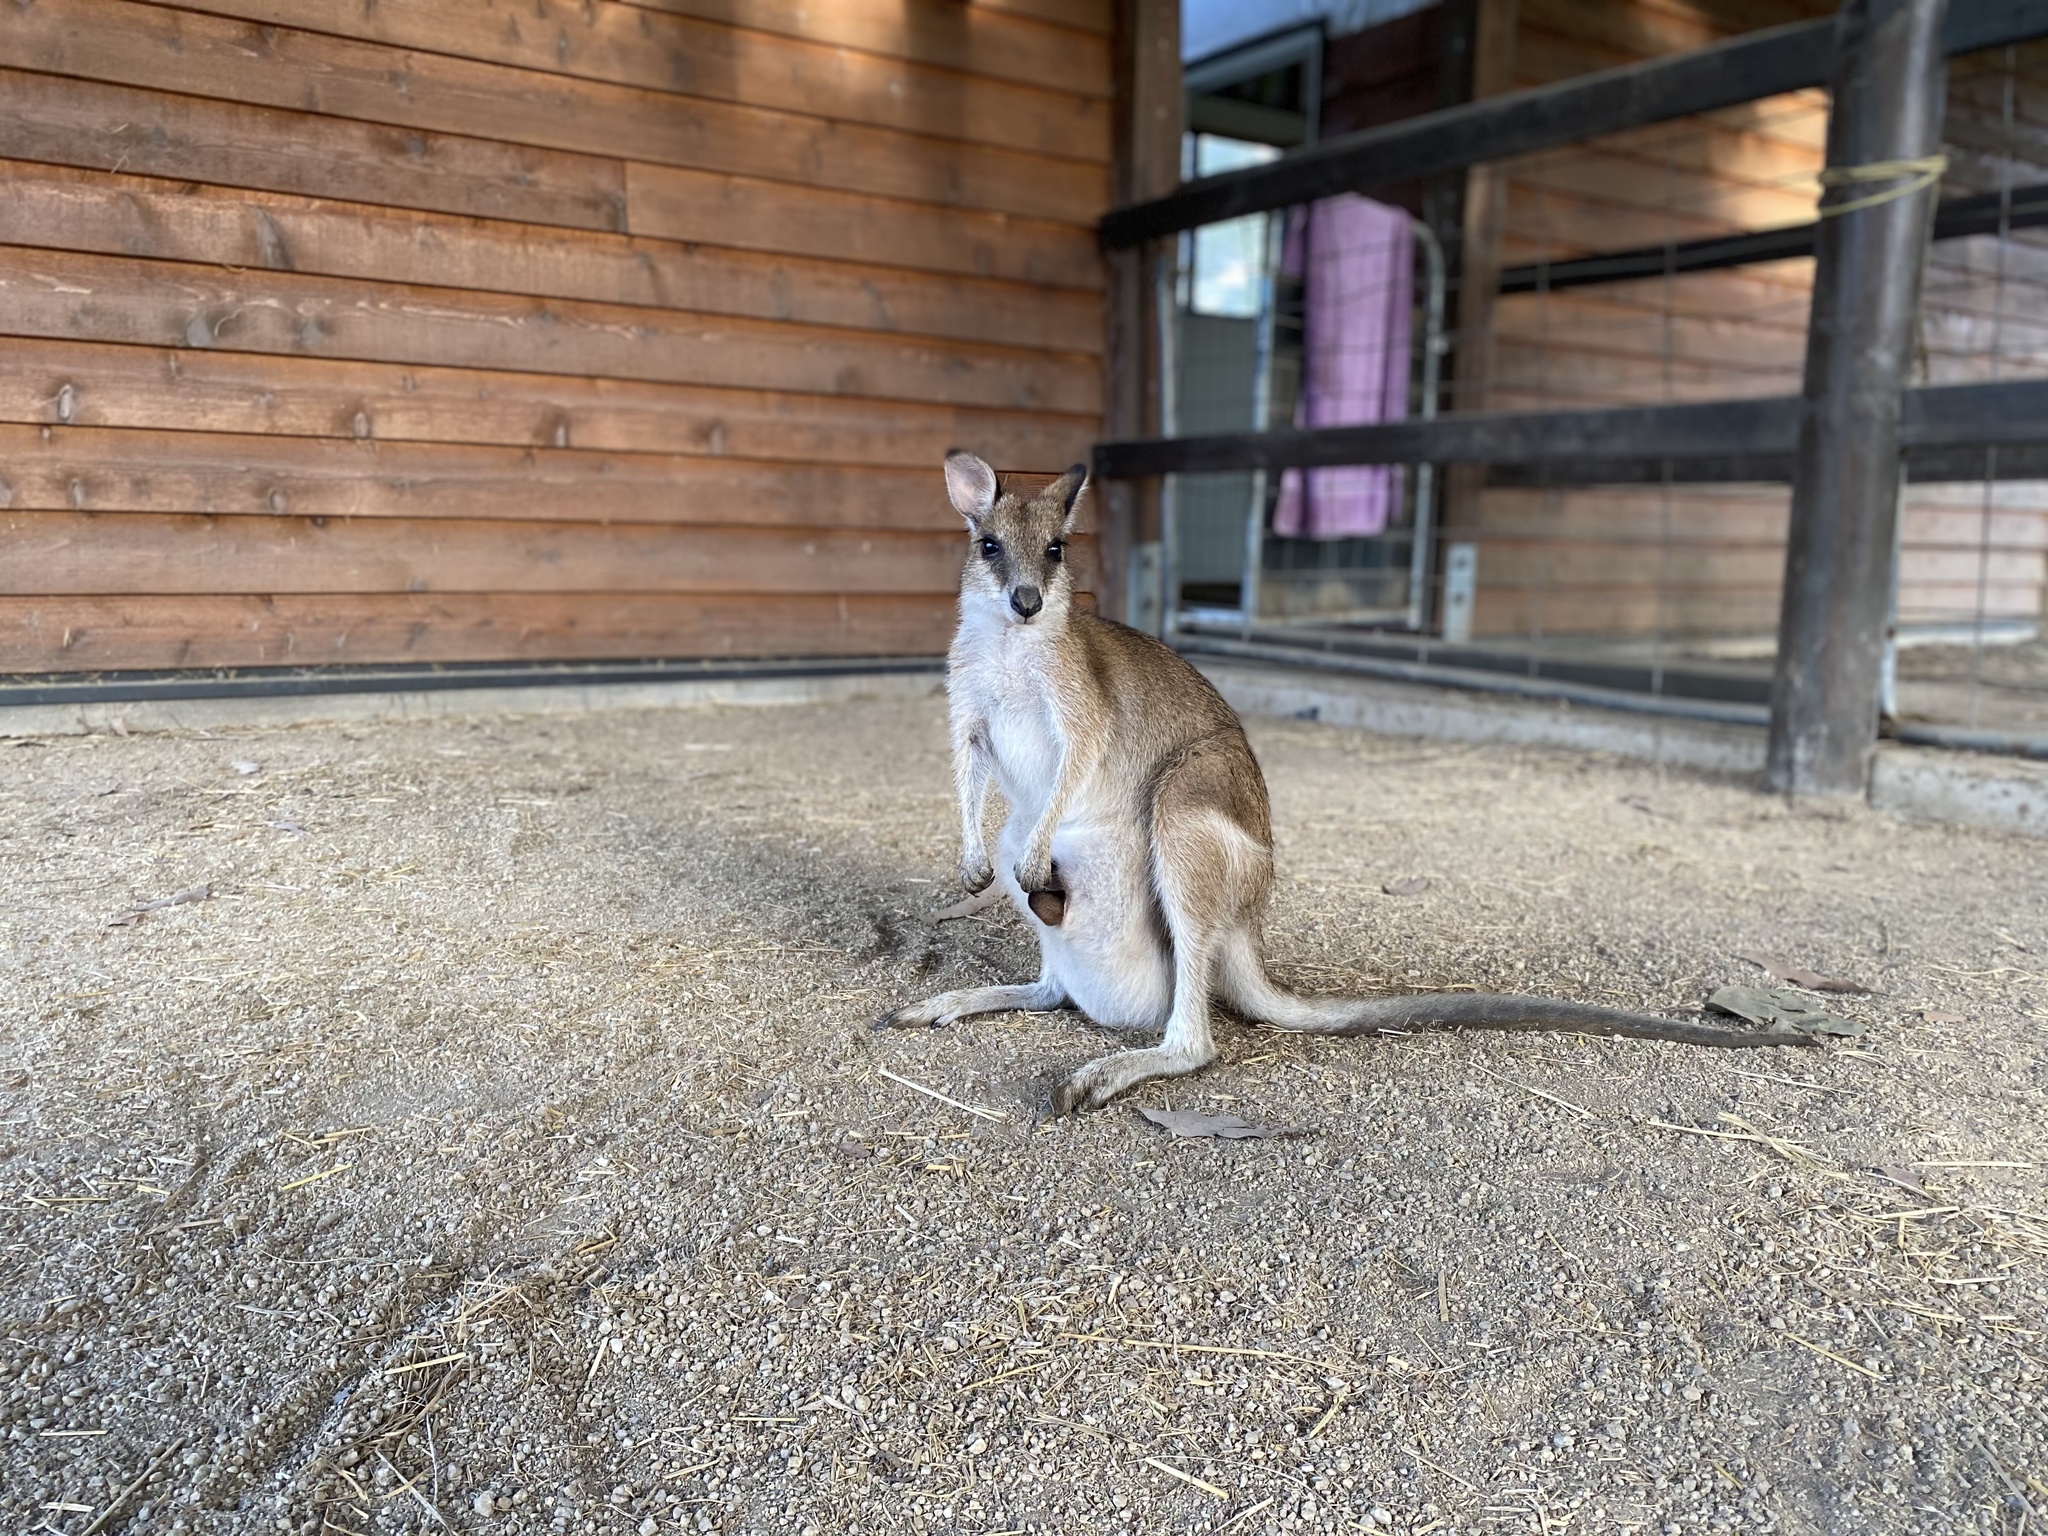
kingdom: Animalia
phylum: Chordata
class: Mammalia
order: Diprotodontia
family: Macropodidae
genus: Macropus
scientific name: Macropus agilis
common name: Agile wallaby
